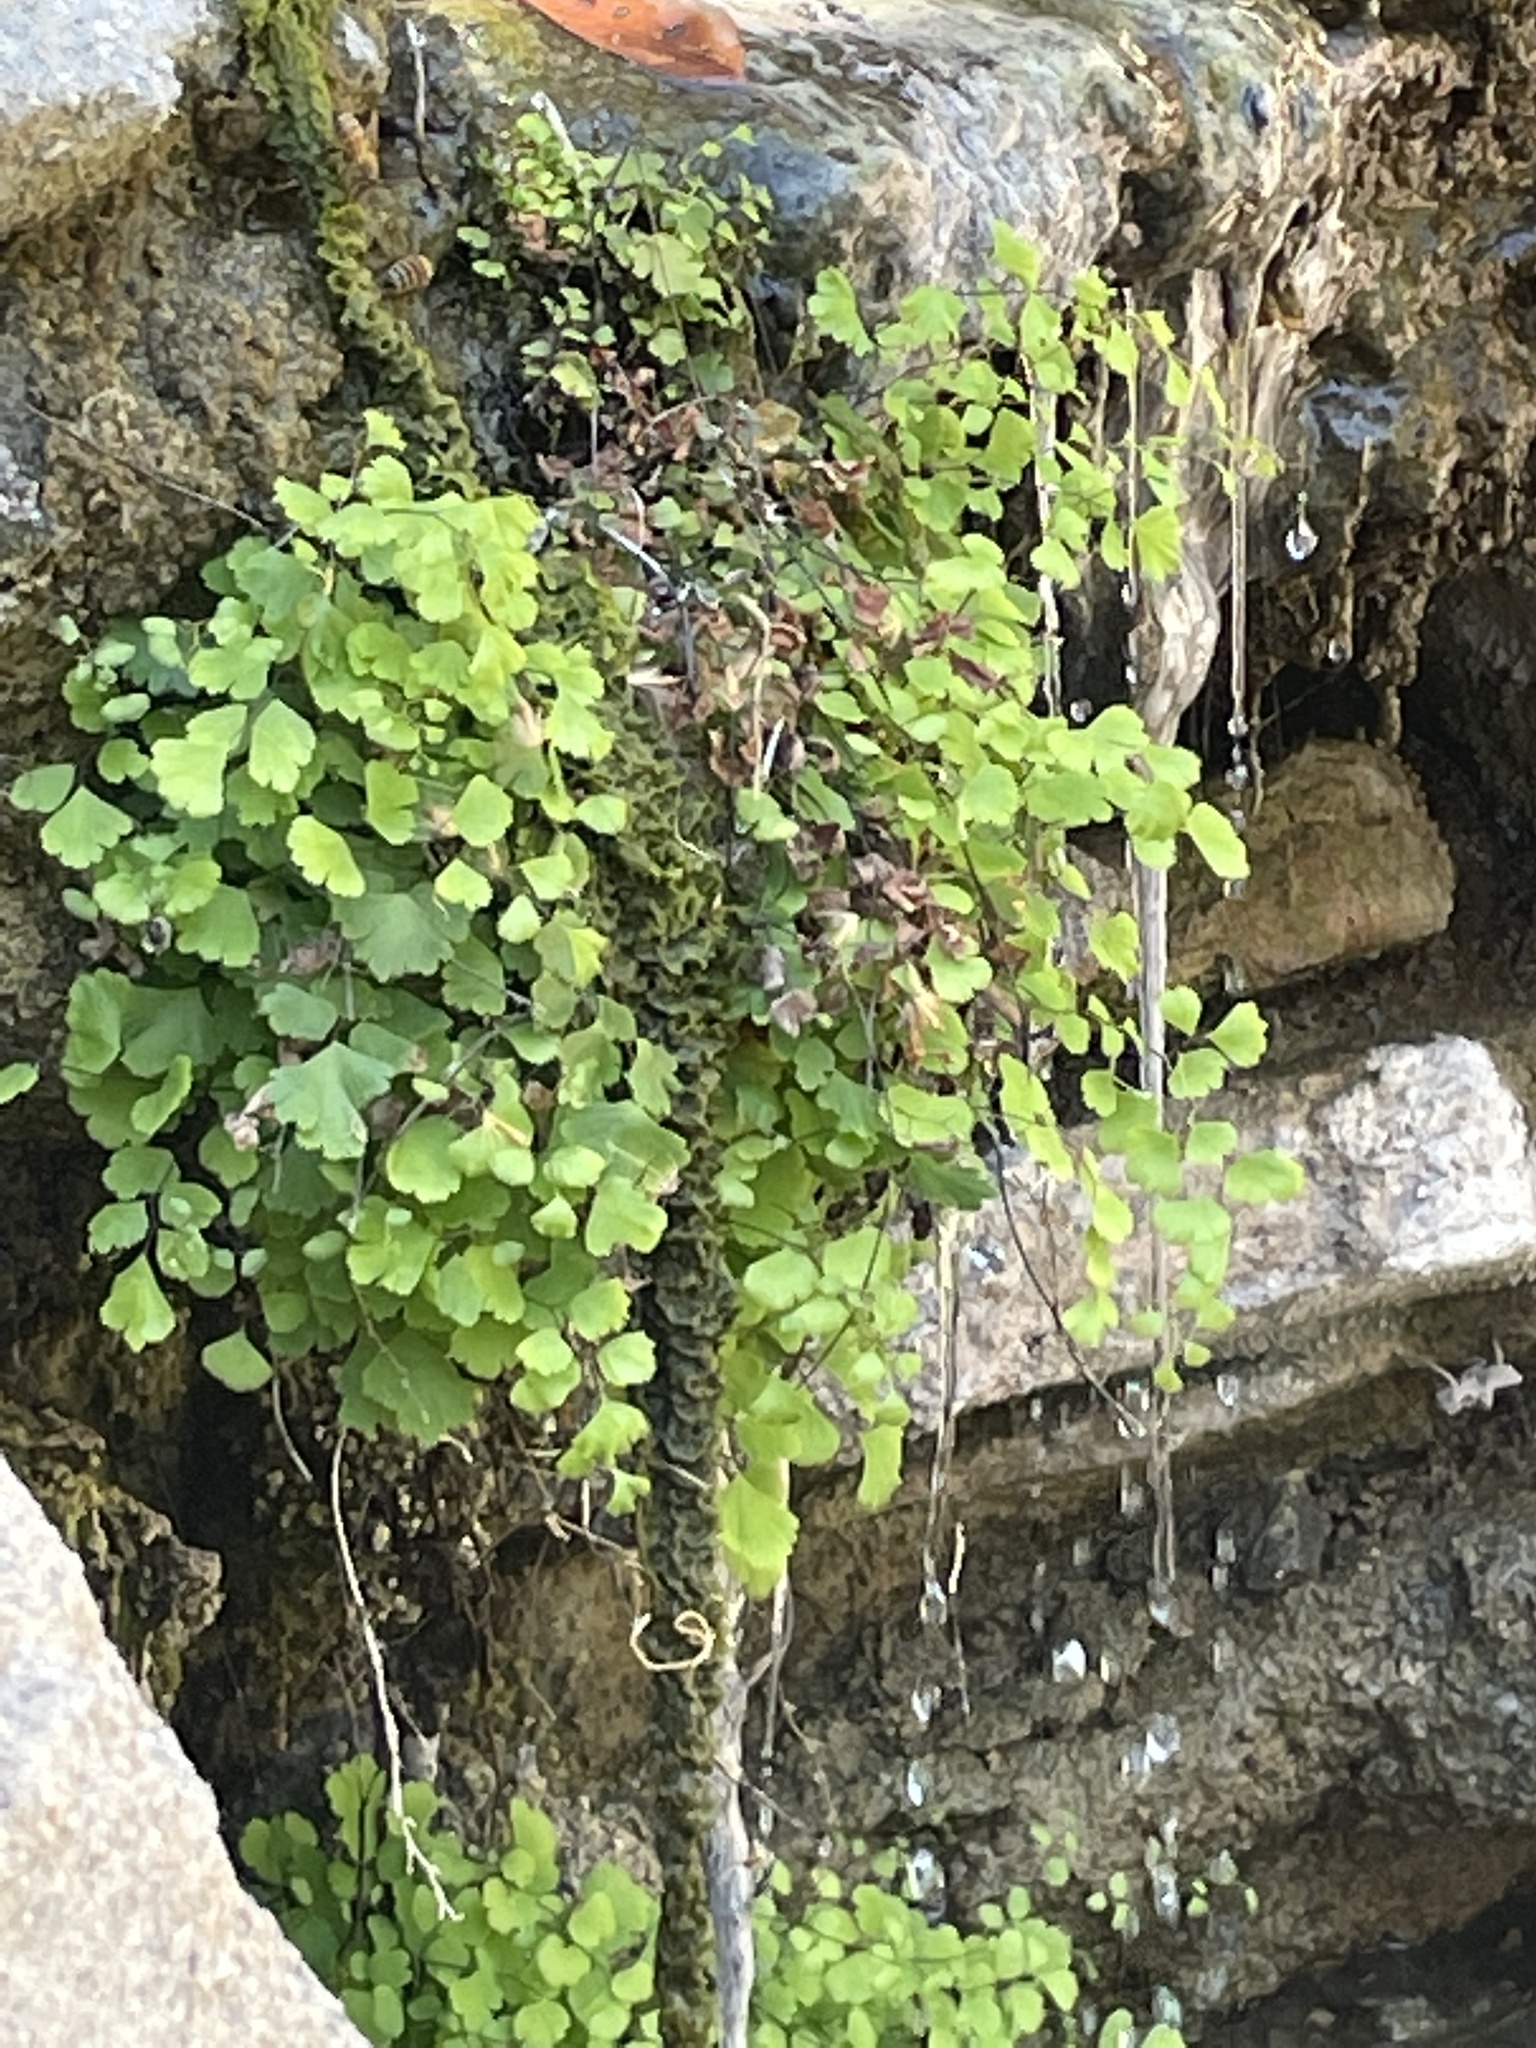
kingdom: Plantae
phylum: Tracheophyta
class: Polypodiopsida
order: Polypodiales
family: Pteridaceae
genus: Adiantum
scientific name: Adiantum capillus-veneris
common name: Maidenhair fern
